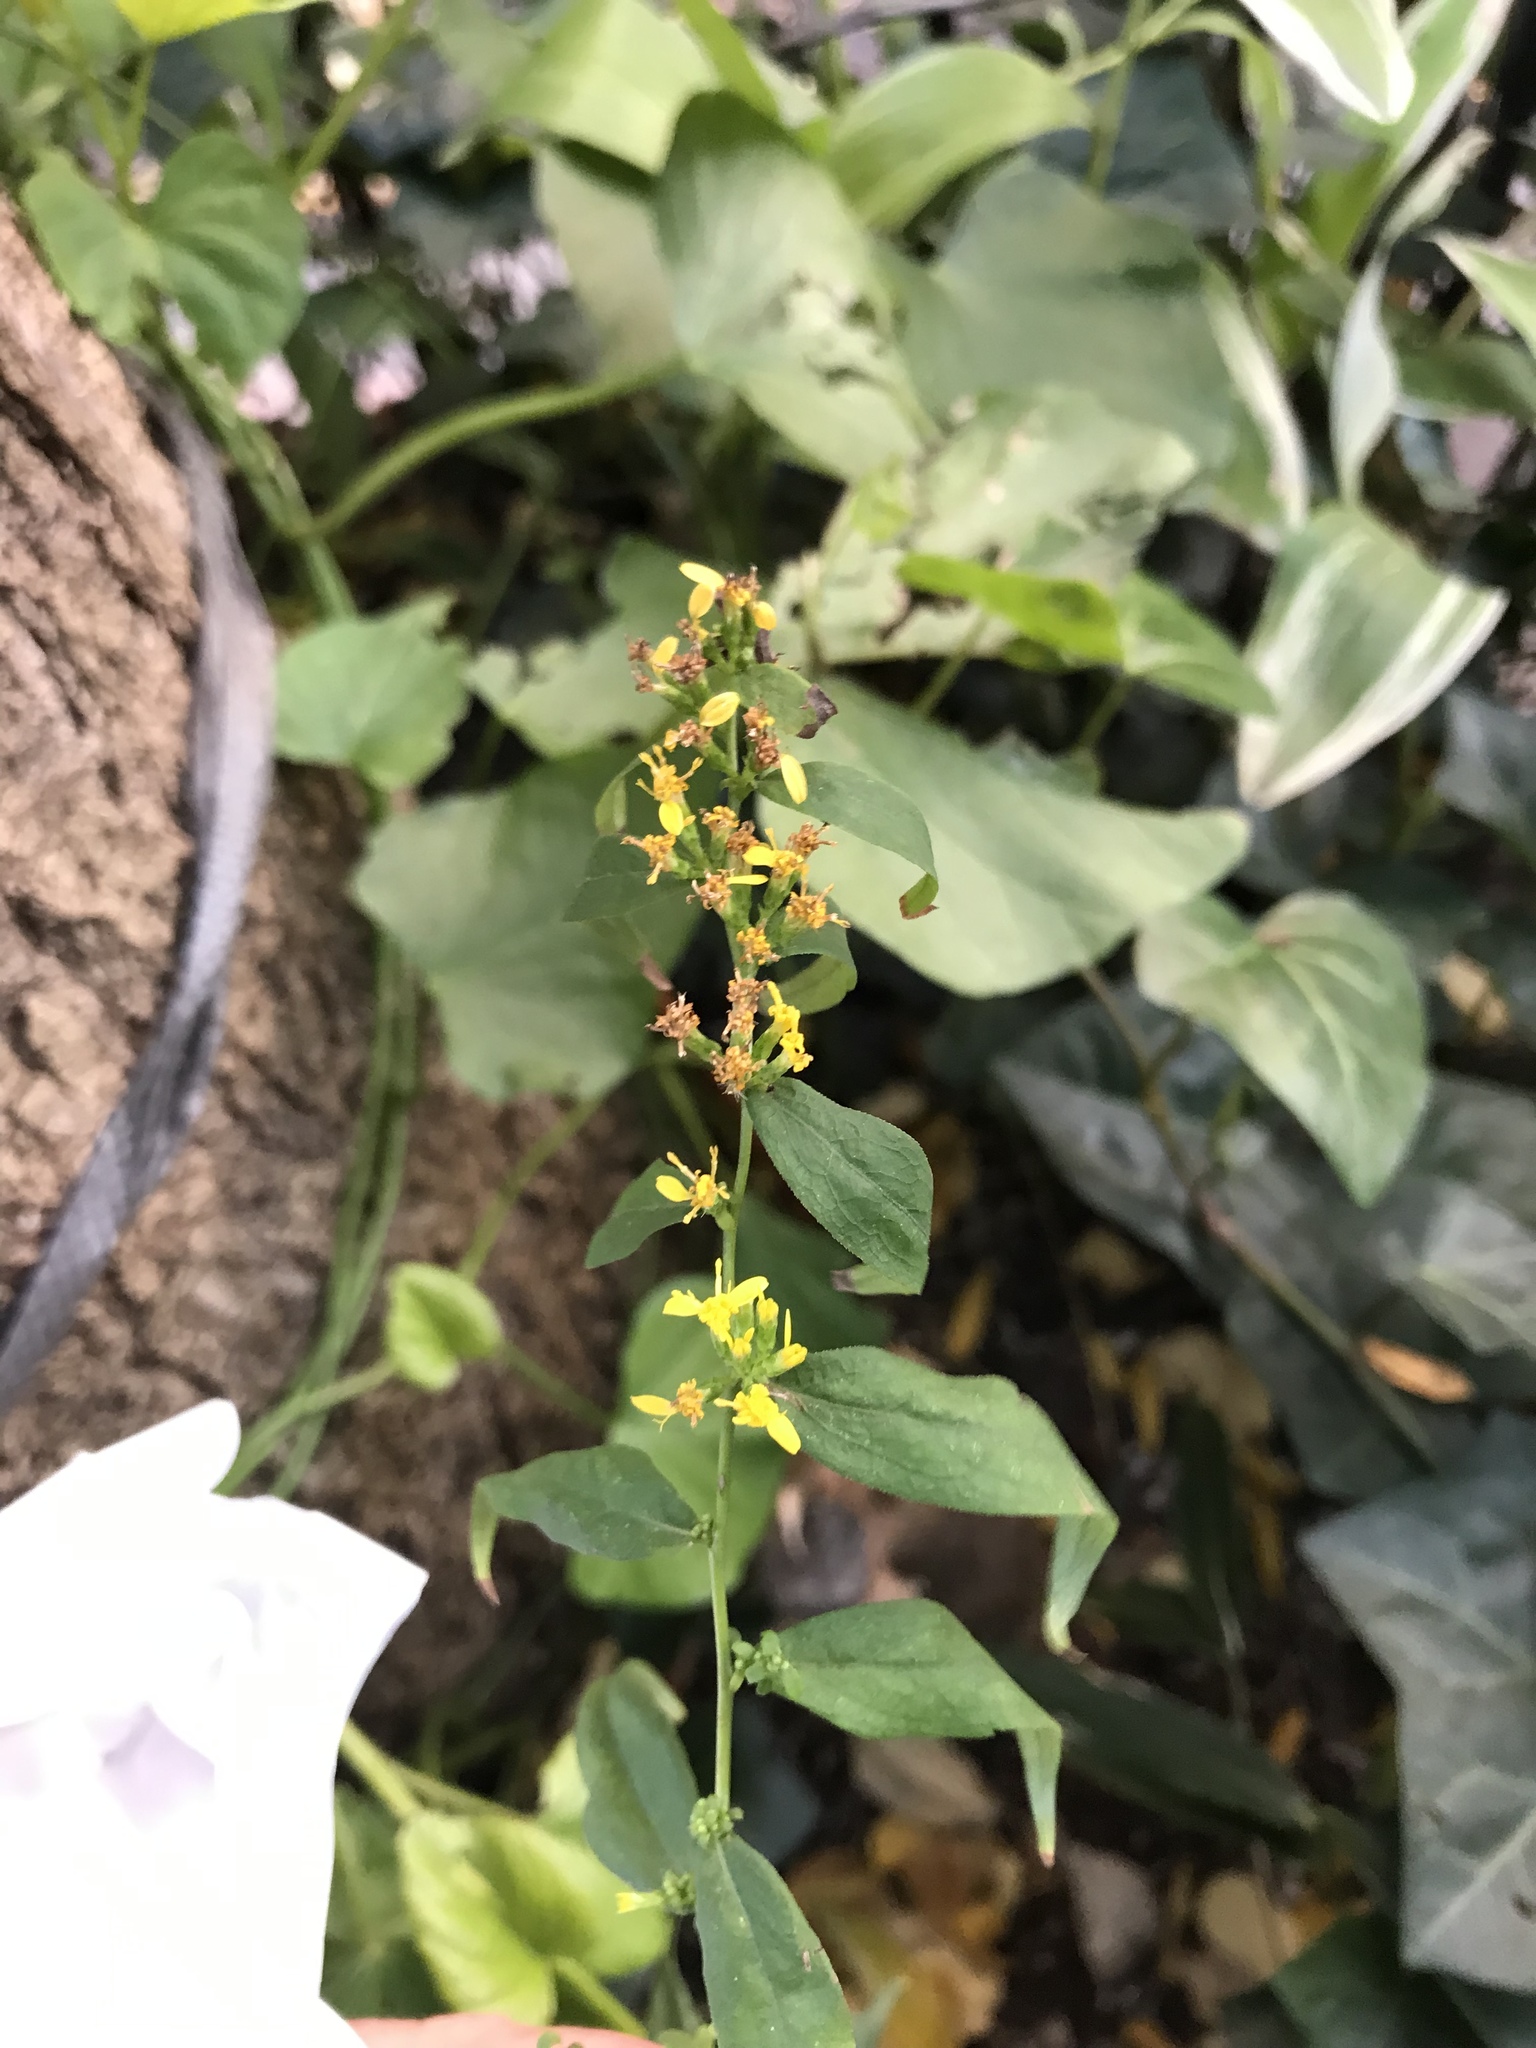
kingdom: Plantae
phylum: Tracheophyta
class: Magnoliopsida
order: Asterales
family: Asteraceae
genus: Solidago
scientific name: Solidago caesia
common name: Woodland goldenrod
